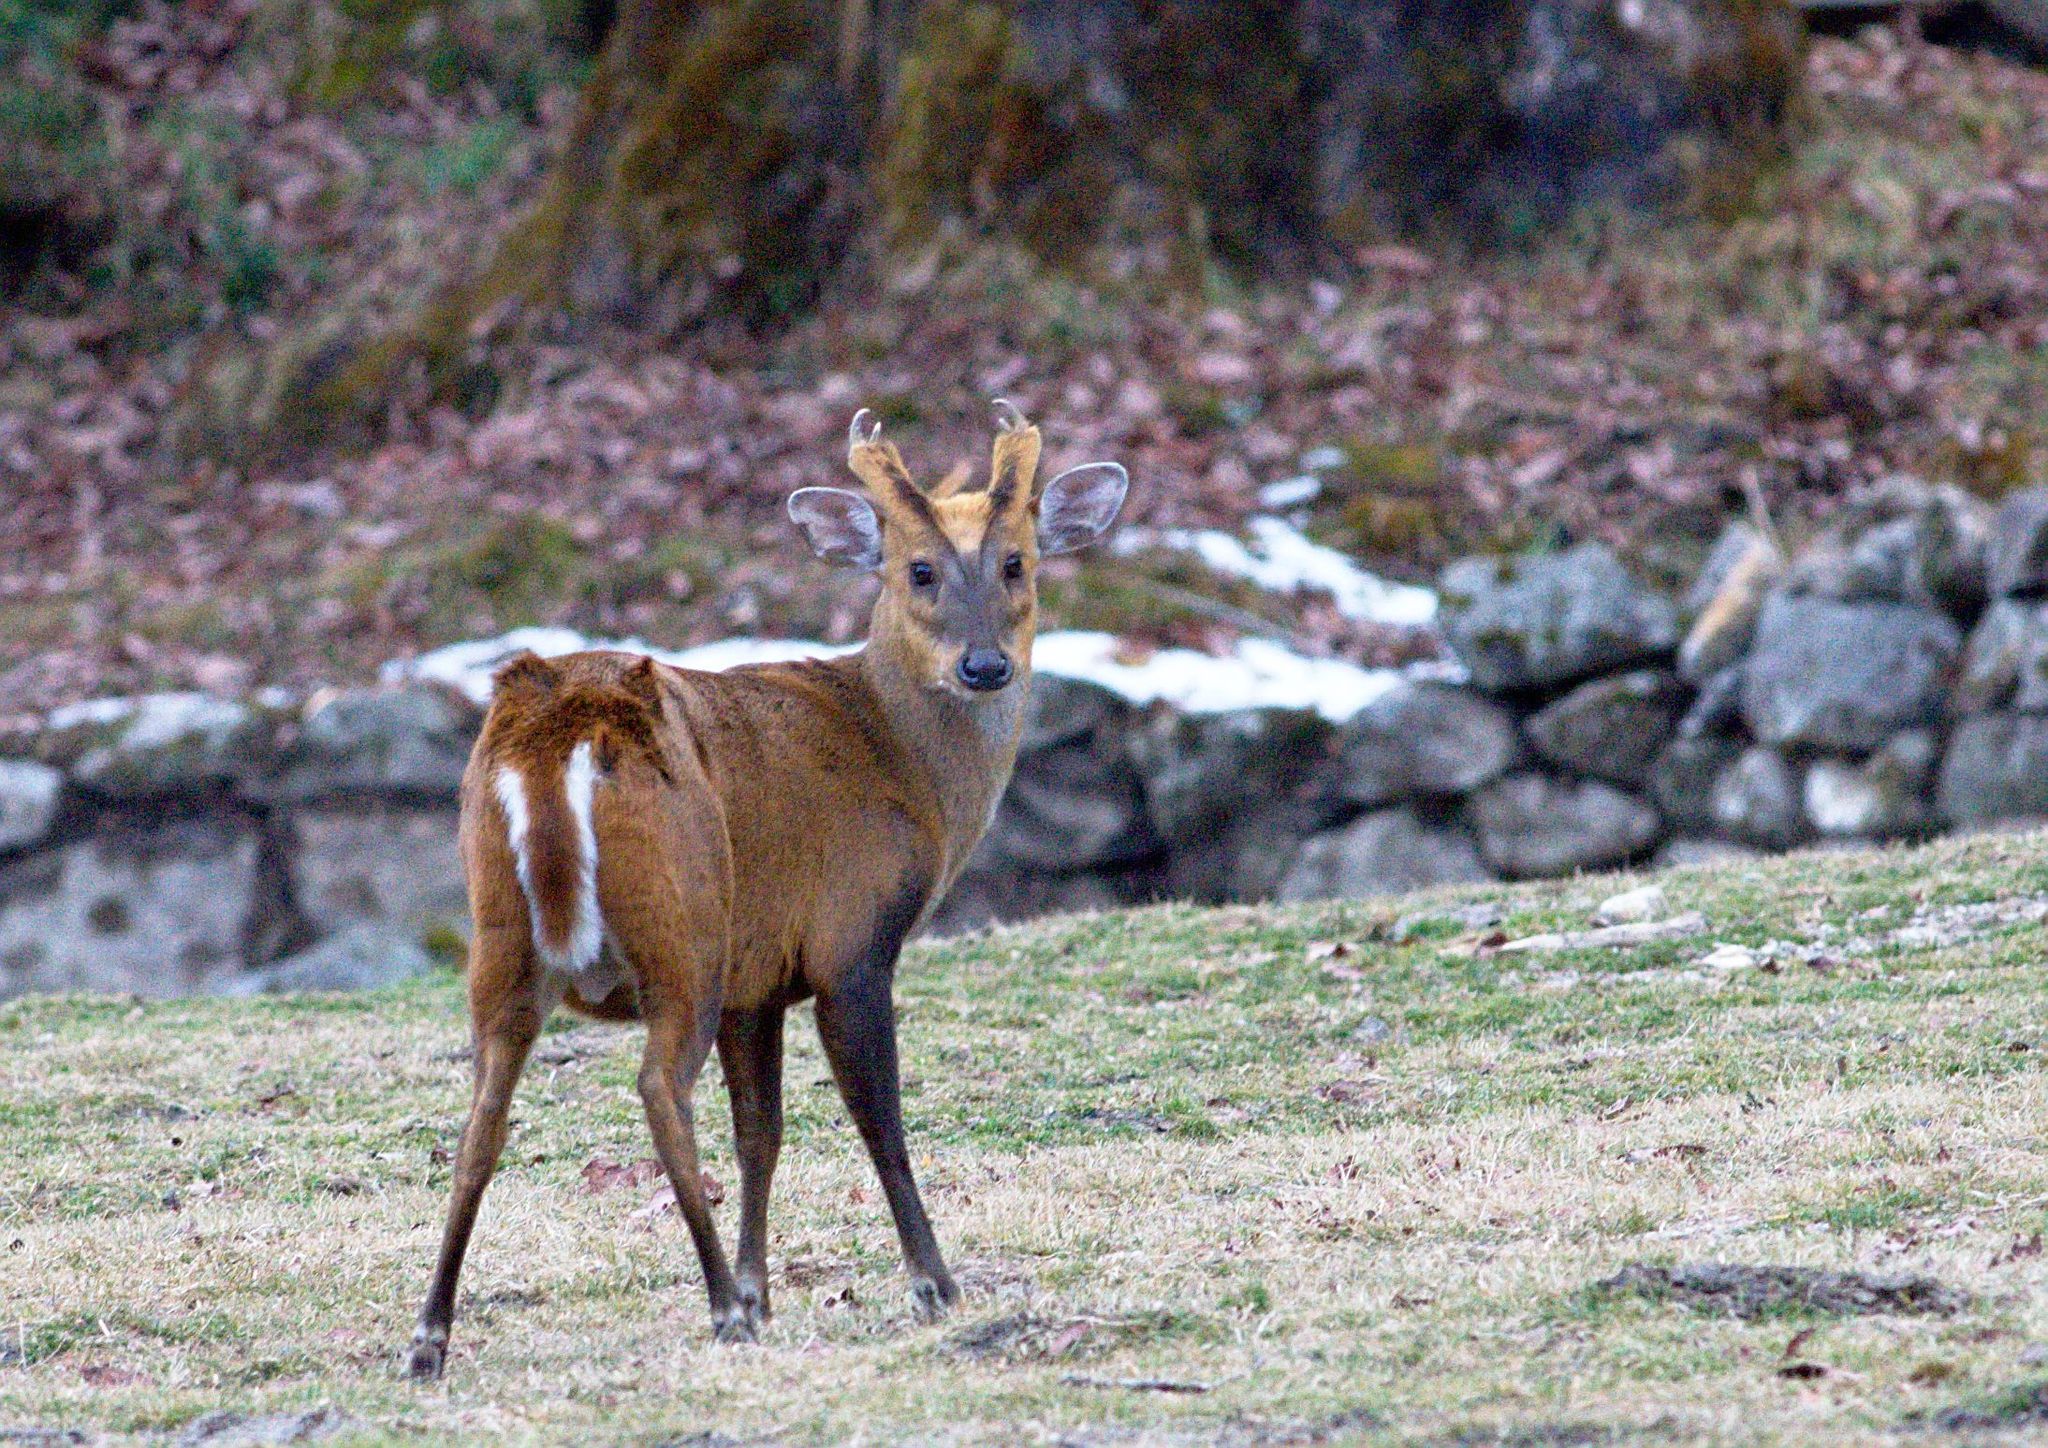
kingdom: Animalia
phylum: Chordata
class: Mammalia
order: Artiodactyla
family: Cervidae
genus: Muntiacus
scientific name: Muntiacus muntjak
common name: Indian muntjac
